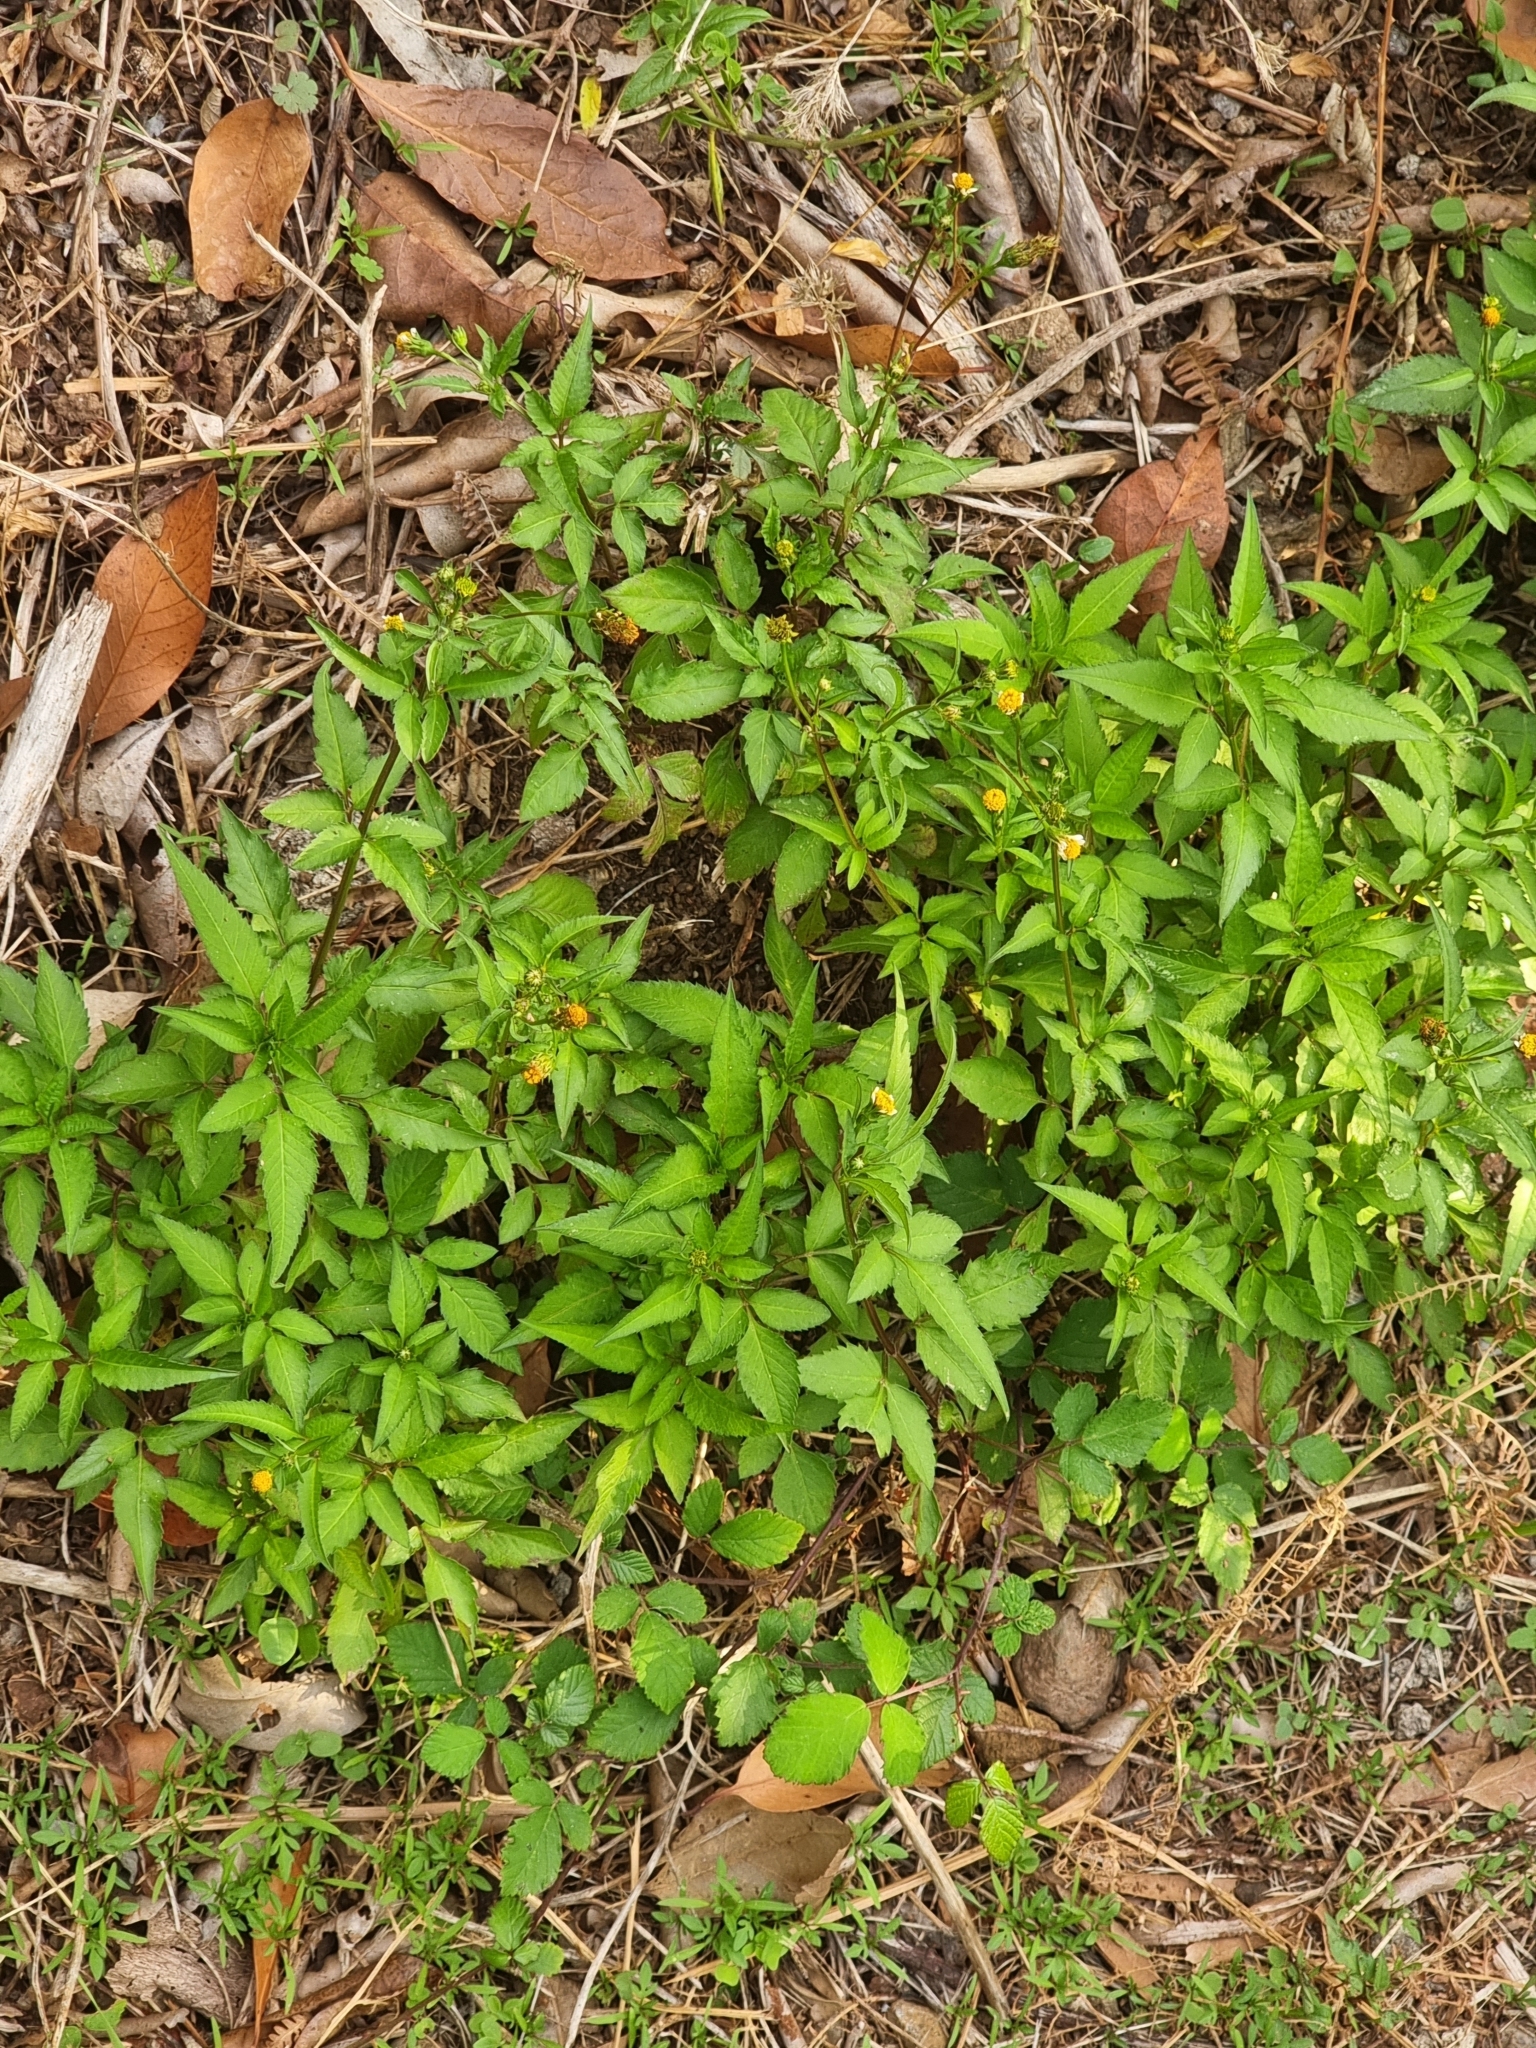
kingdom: Plantae
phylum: Tracheophyta
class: Magnoliopsida
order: Asterales
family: Asteraceae
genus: Bidens
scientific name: Bidens pilosa
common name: Black-jack
